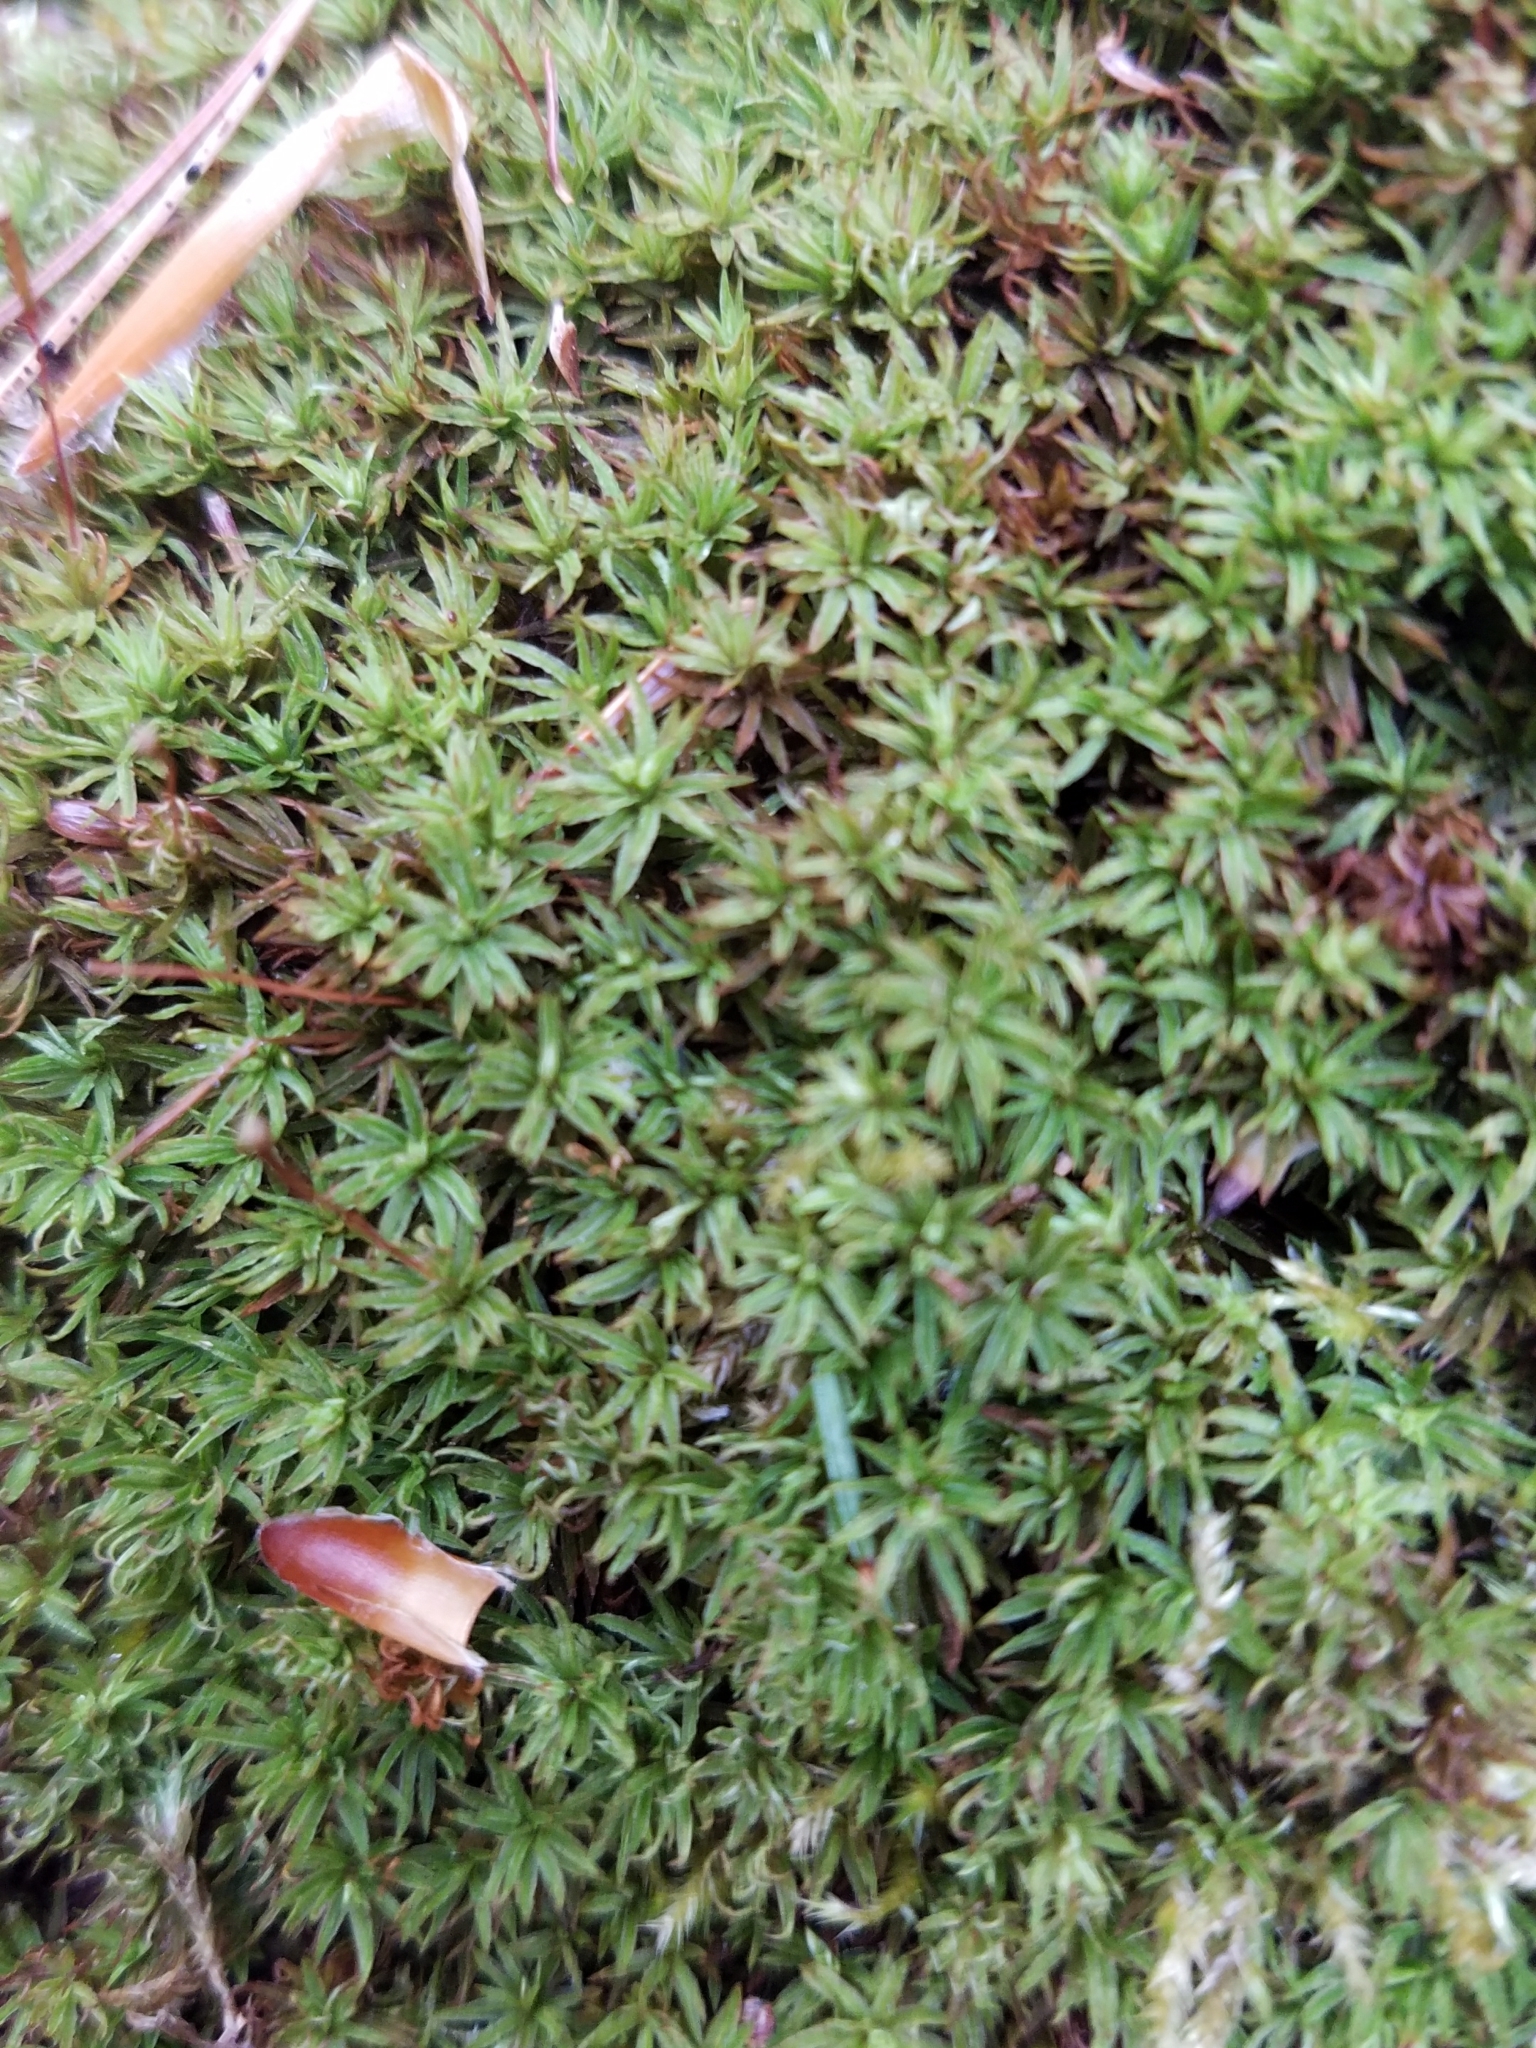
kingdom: Plantae
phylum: Bryophyta
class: Polytrichopsida
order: Polytrichales
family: Polytrichaceae
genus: Atrichum
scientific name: Atrichum angustatum
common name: Lesser smoothcap
